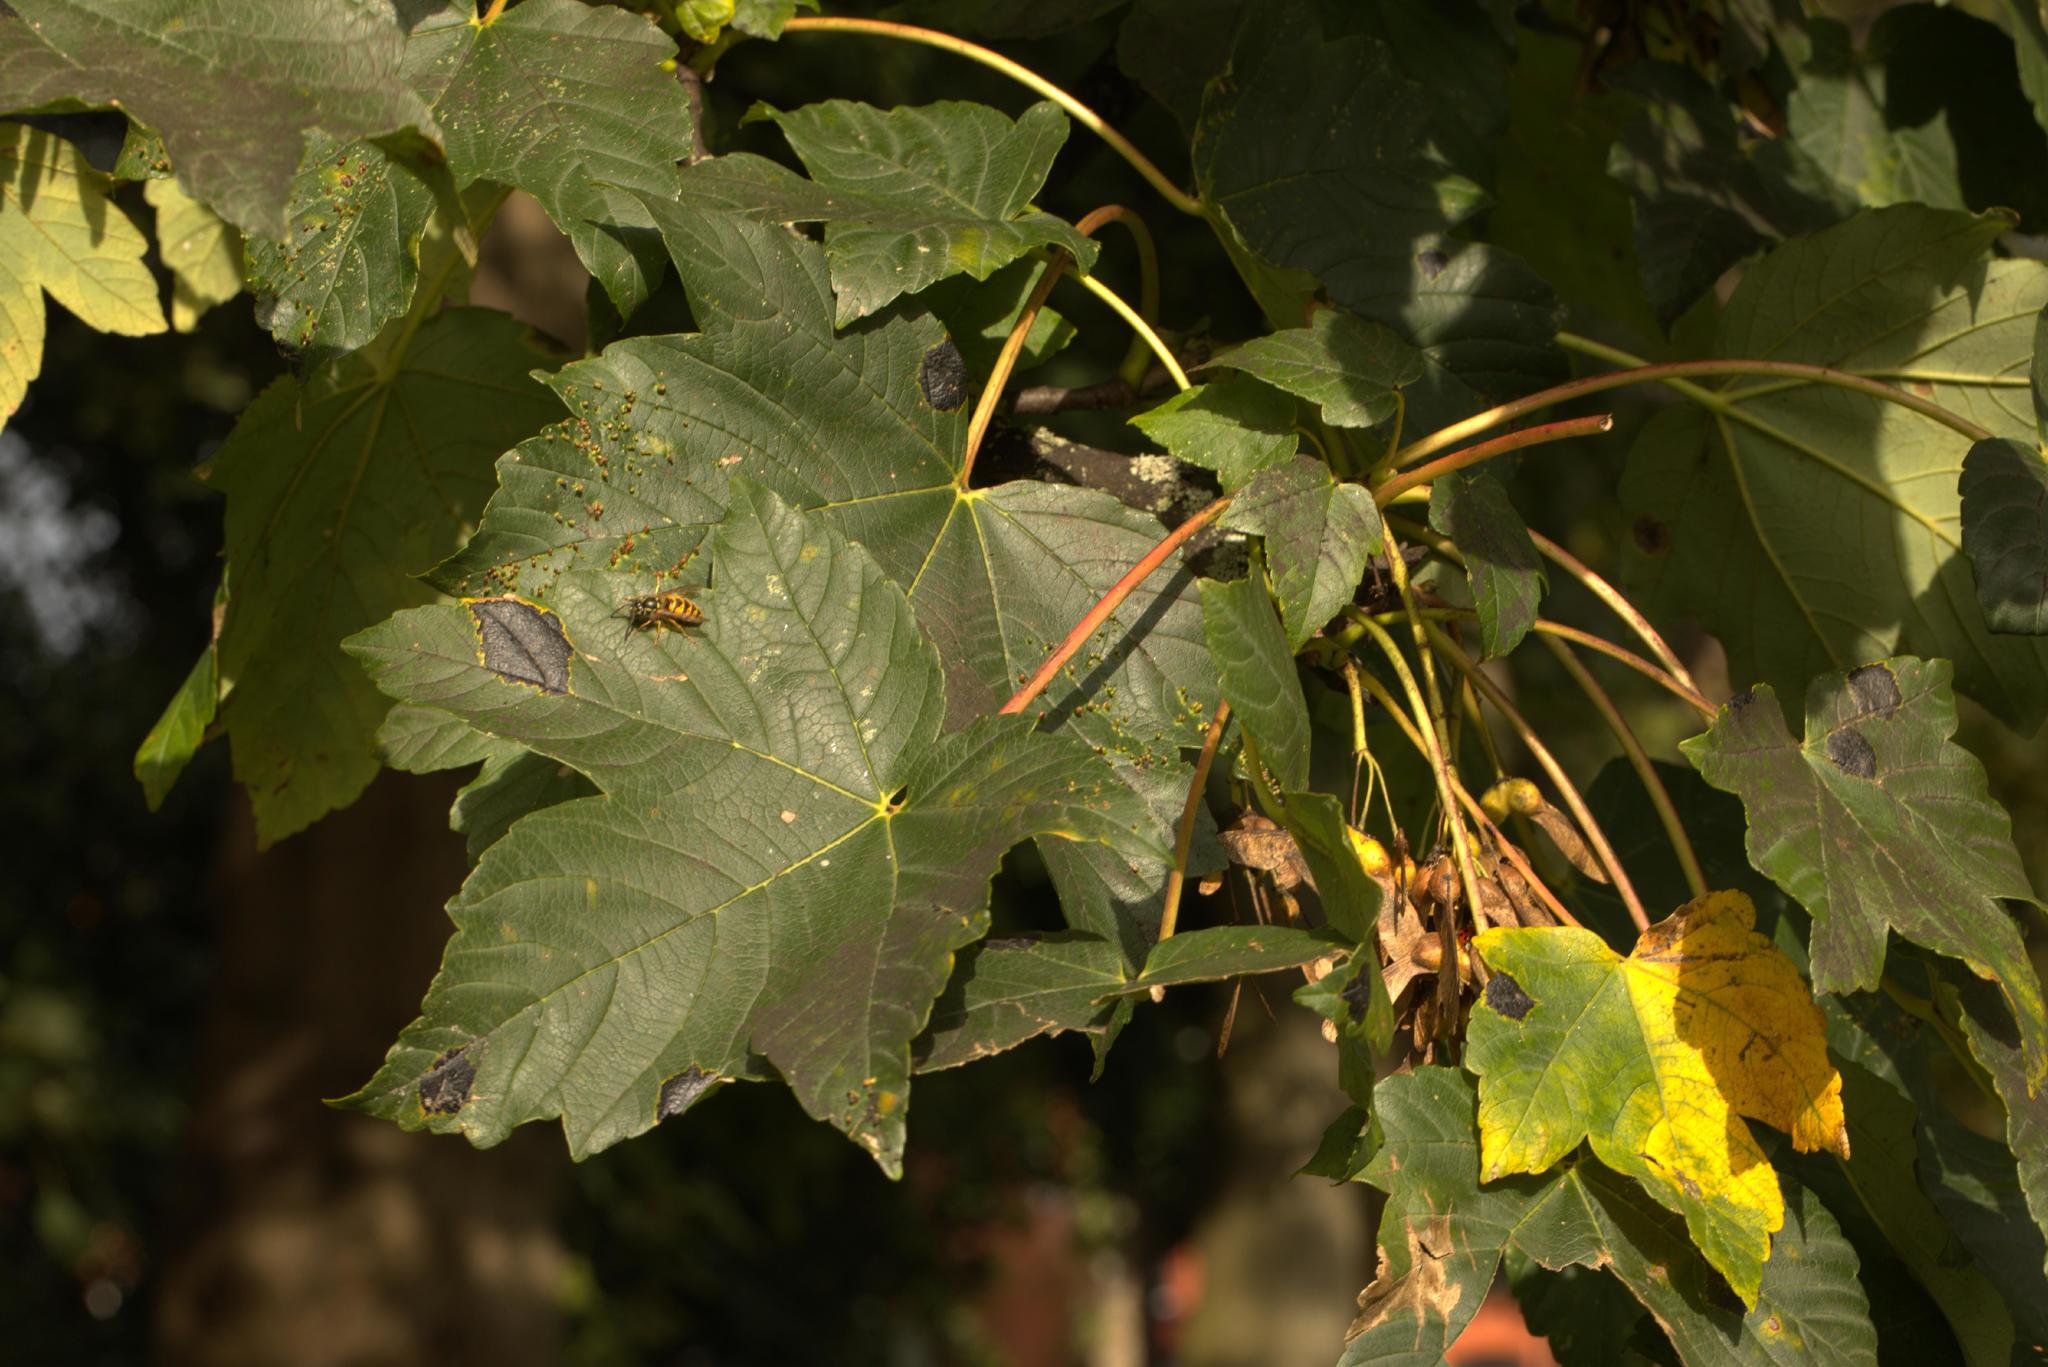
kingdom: Plantae
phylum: Tracheophyta
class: Magnoliopsida
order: Sapindales
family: Sapindaceae
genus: Acer
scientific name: Acer pseudoplatanus
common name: Sycamore
